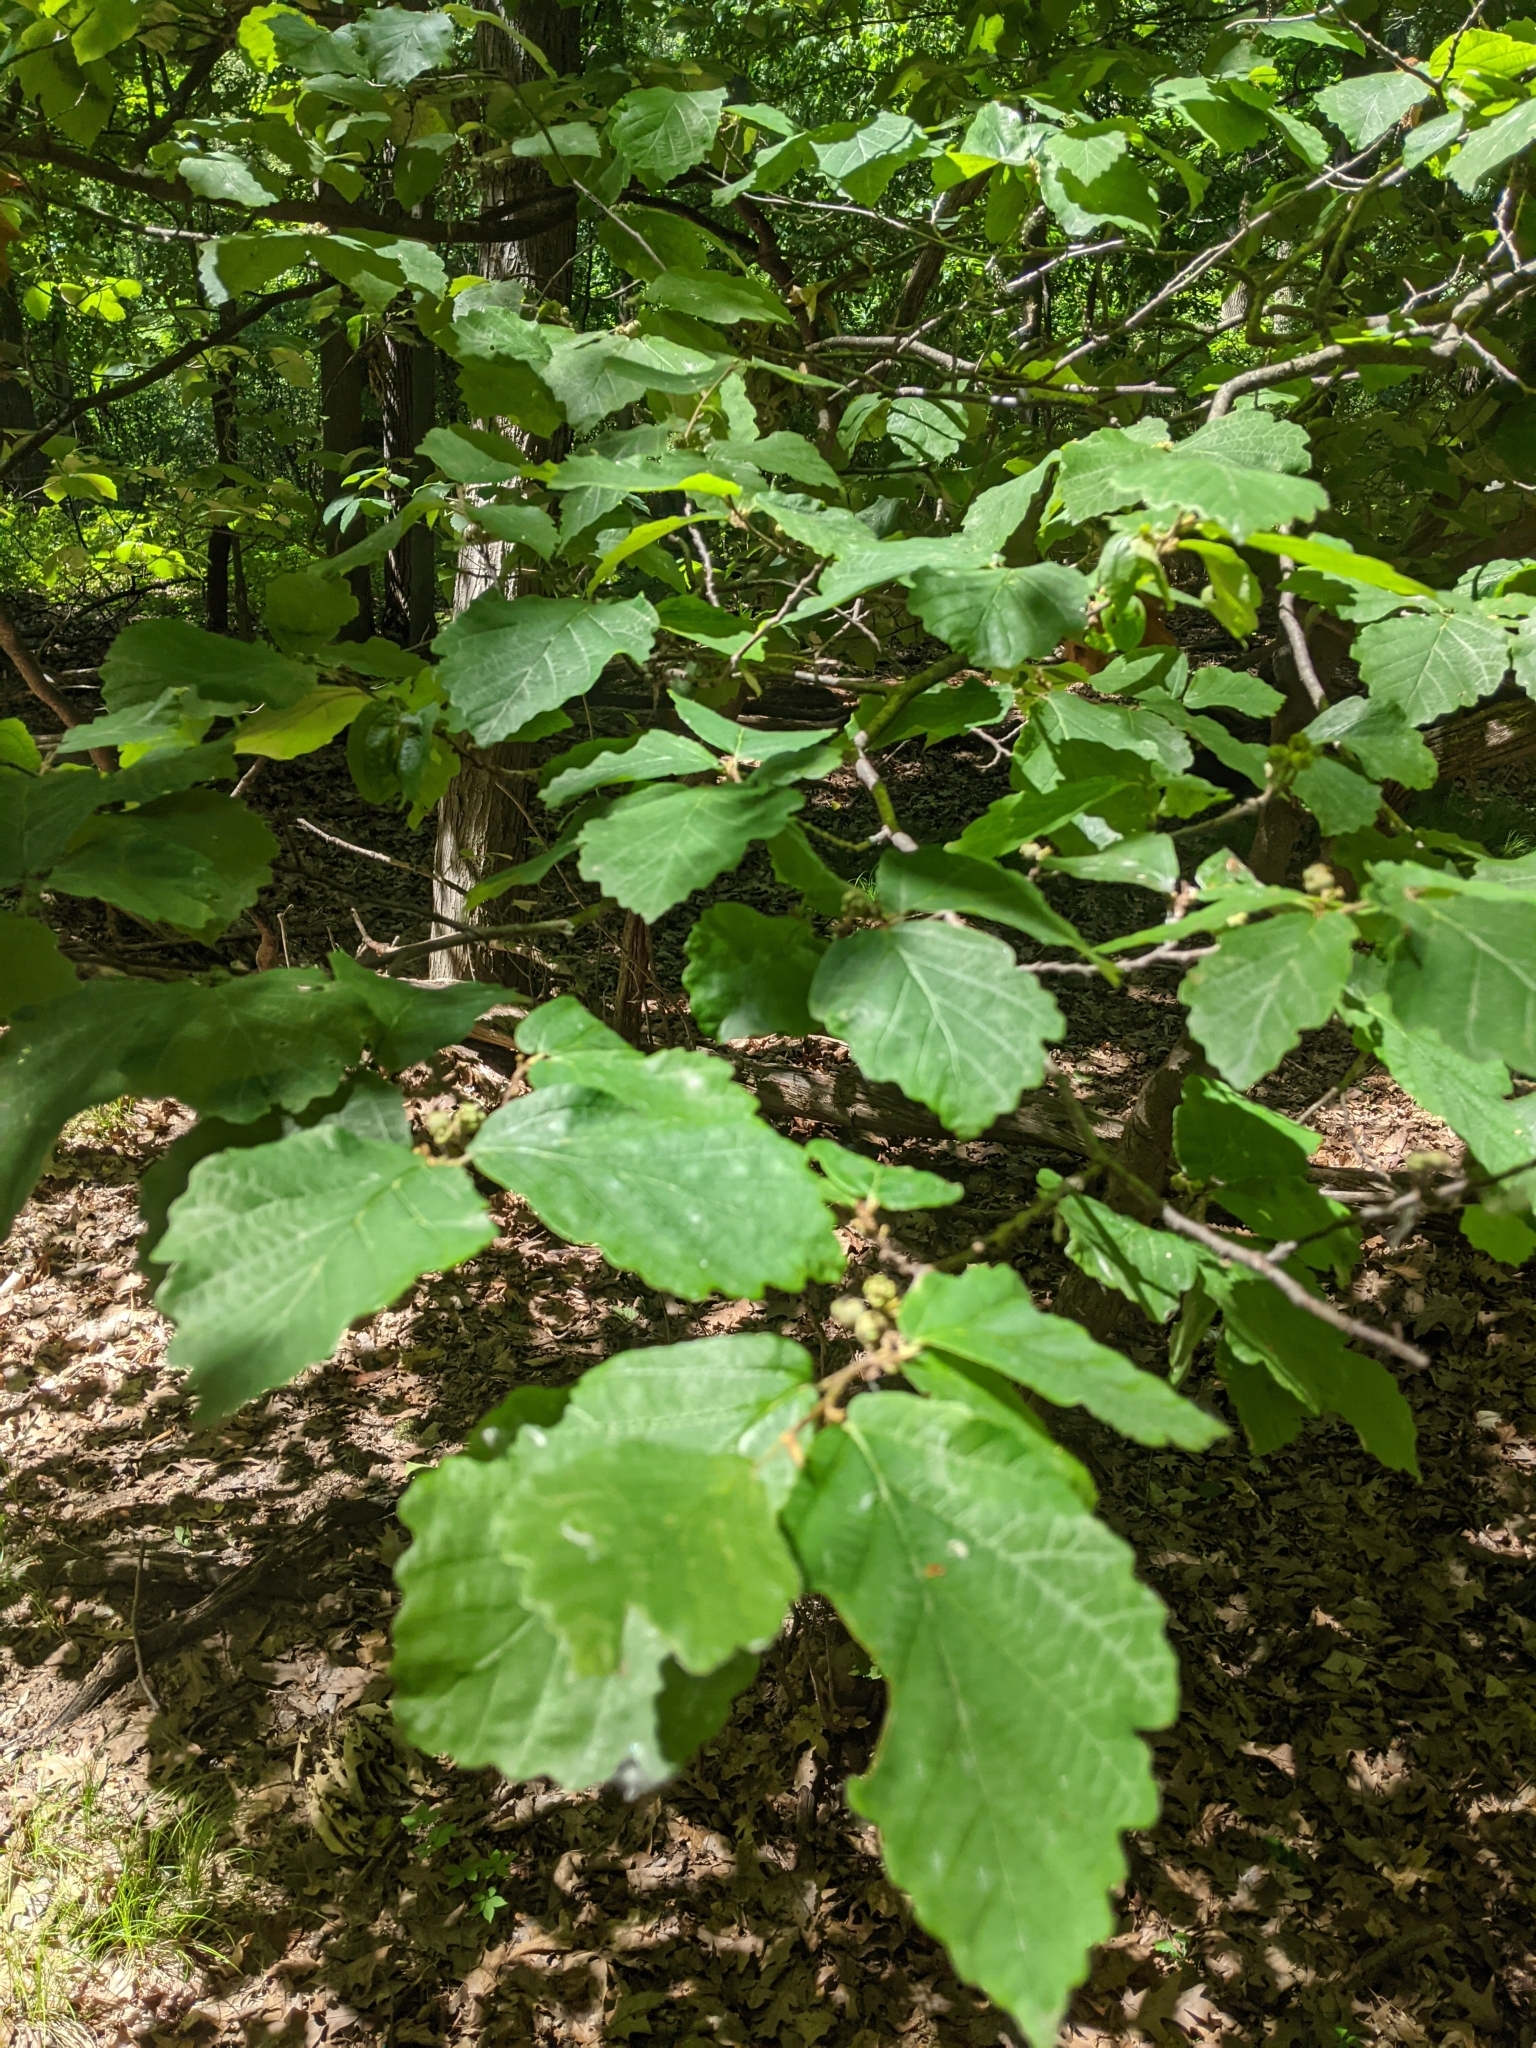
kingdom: Plantae
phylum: Tracheophyta
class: Magnoliopsida
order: Saxifragales
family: Hamamelidaceae
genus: Hamamelis
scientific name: Hamamelis virginiana
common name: Witch-hazel
